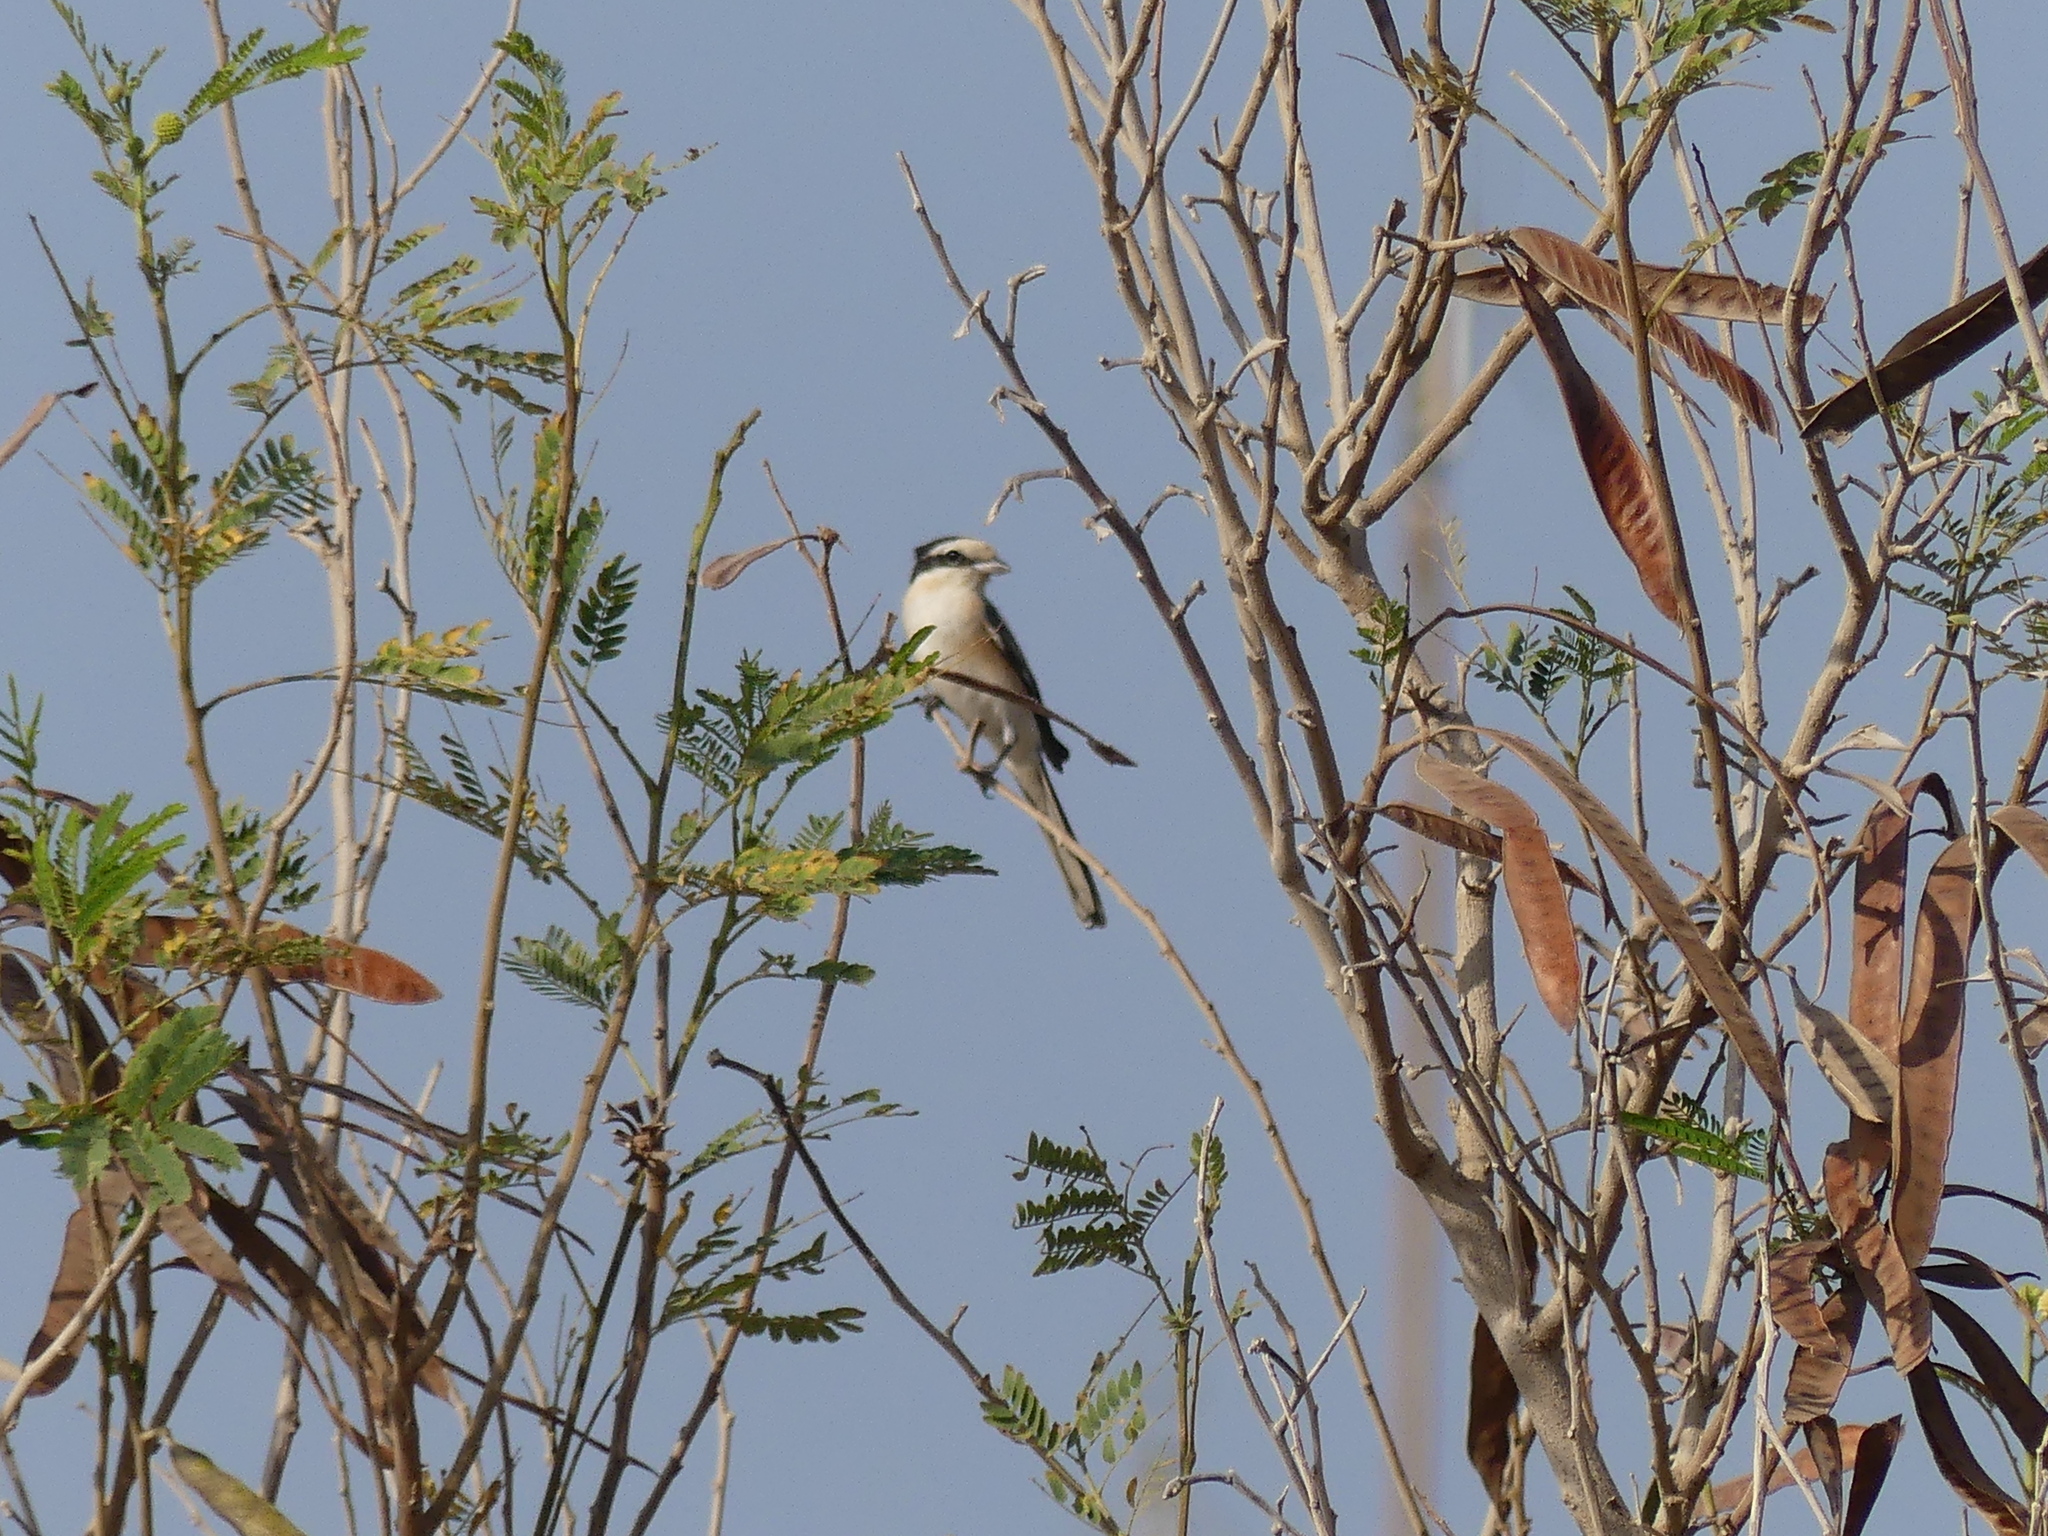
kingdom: Animalia
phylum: Chordata
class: Aves
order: Passeriformes
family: Laniidae
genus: Lanius
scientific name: Lanius nubicus
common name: Masked shrike
